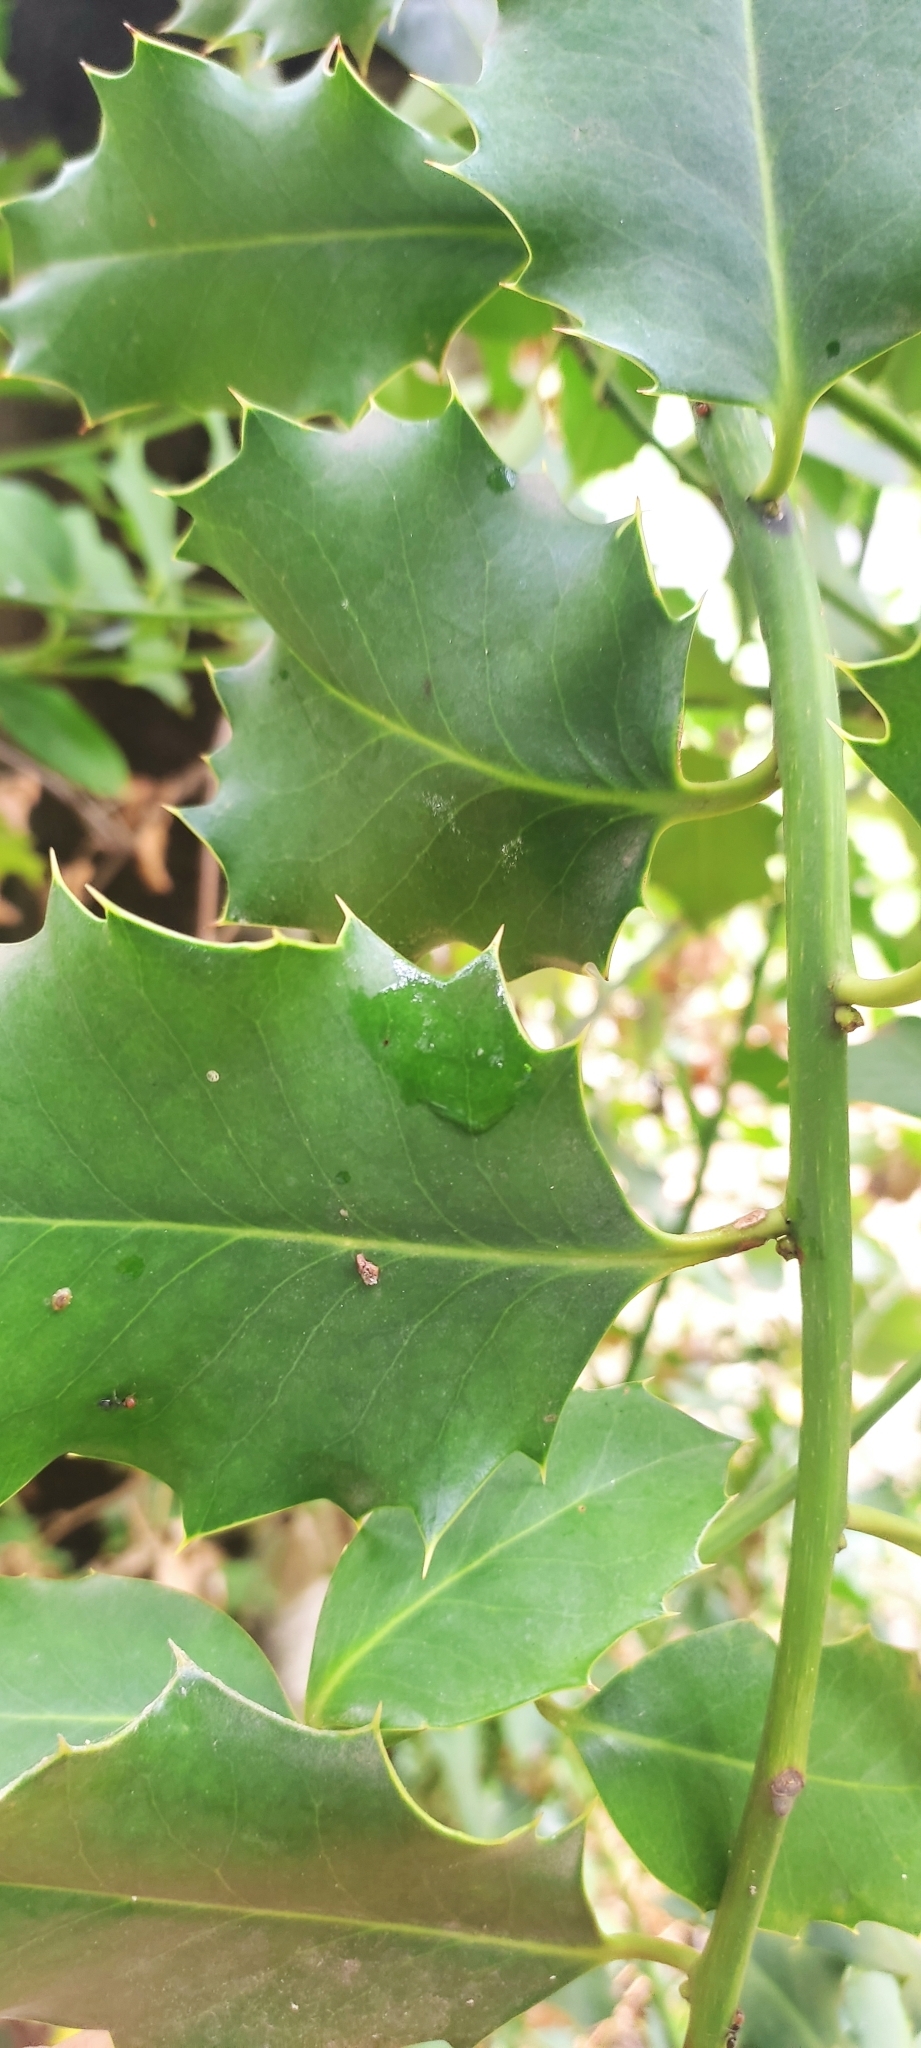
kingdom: Plantae
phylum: Tracheophyta
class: Magnoliopsida
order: Aquifoliales
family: Aquifoliaceae
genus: Ilex
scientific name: Ilex aquifolium
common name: English holly
